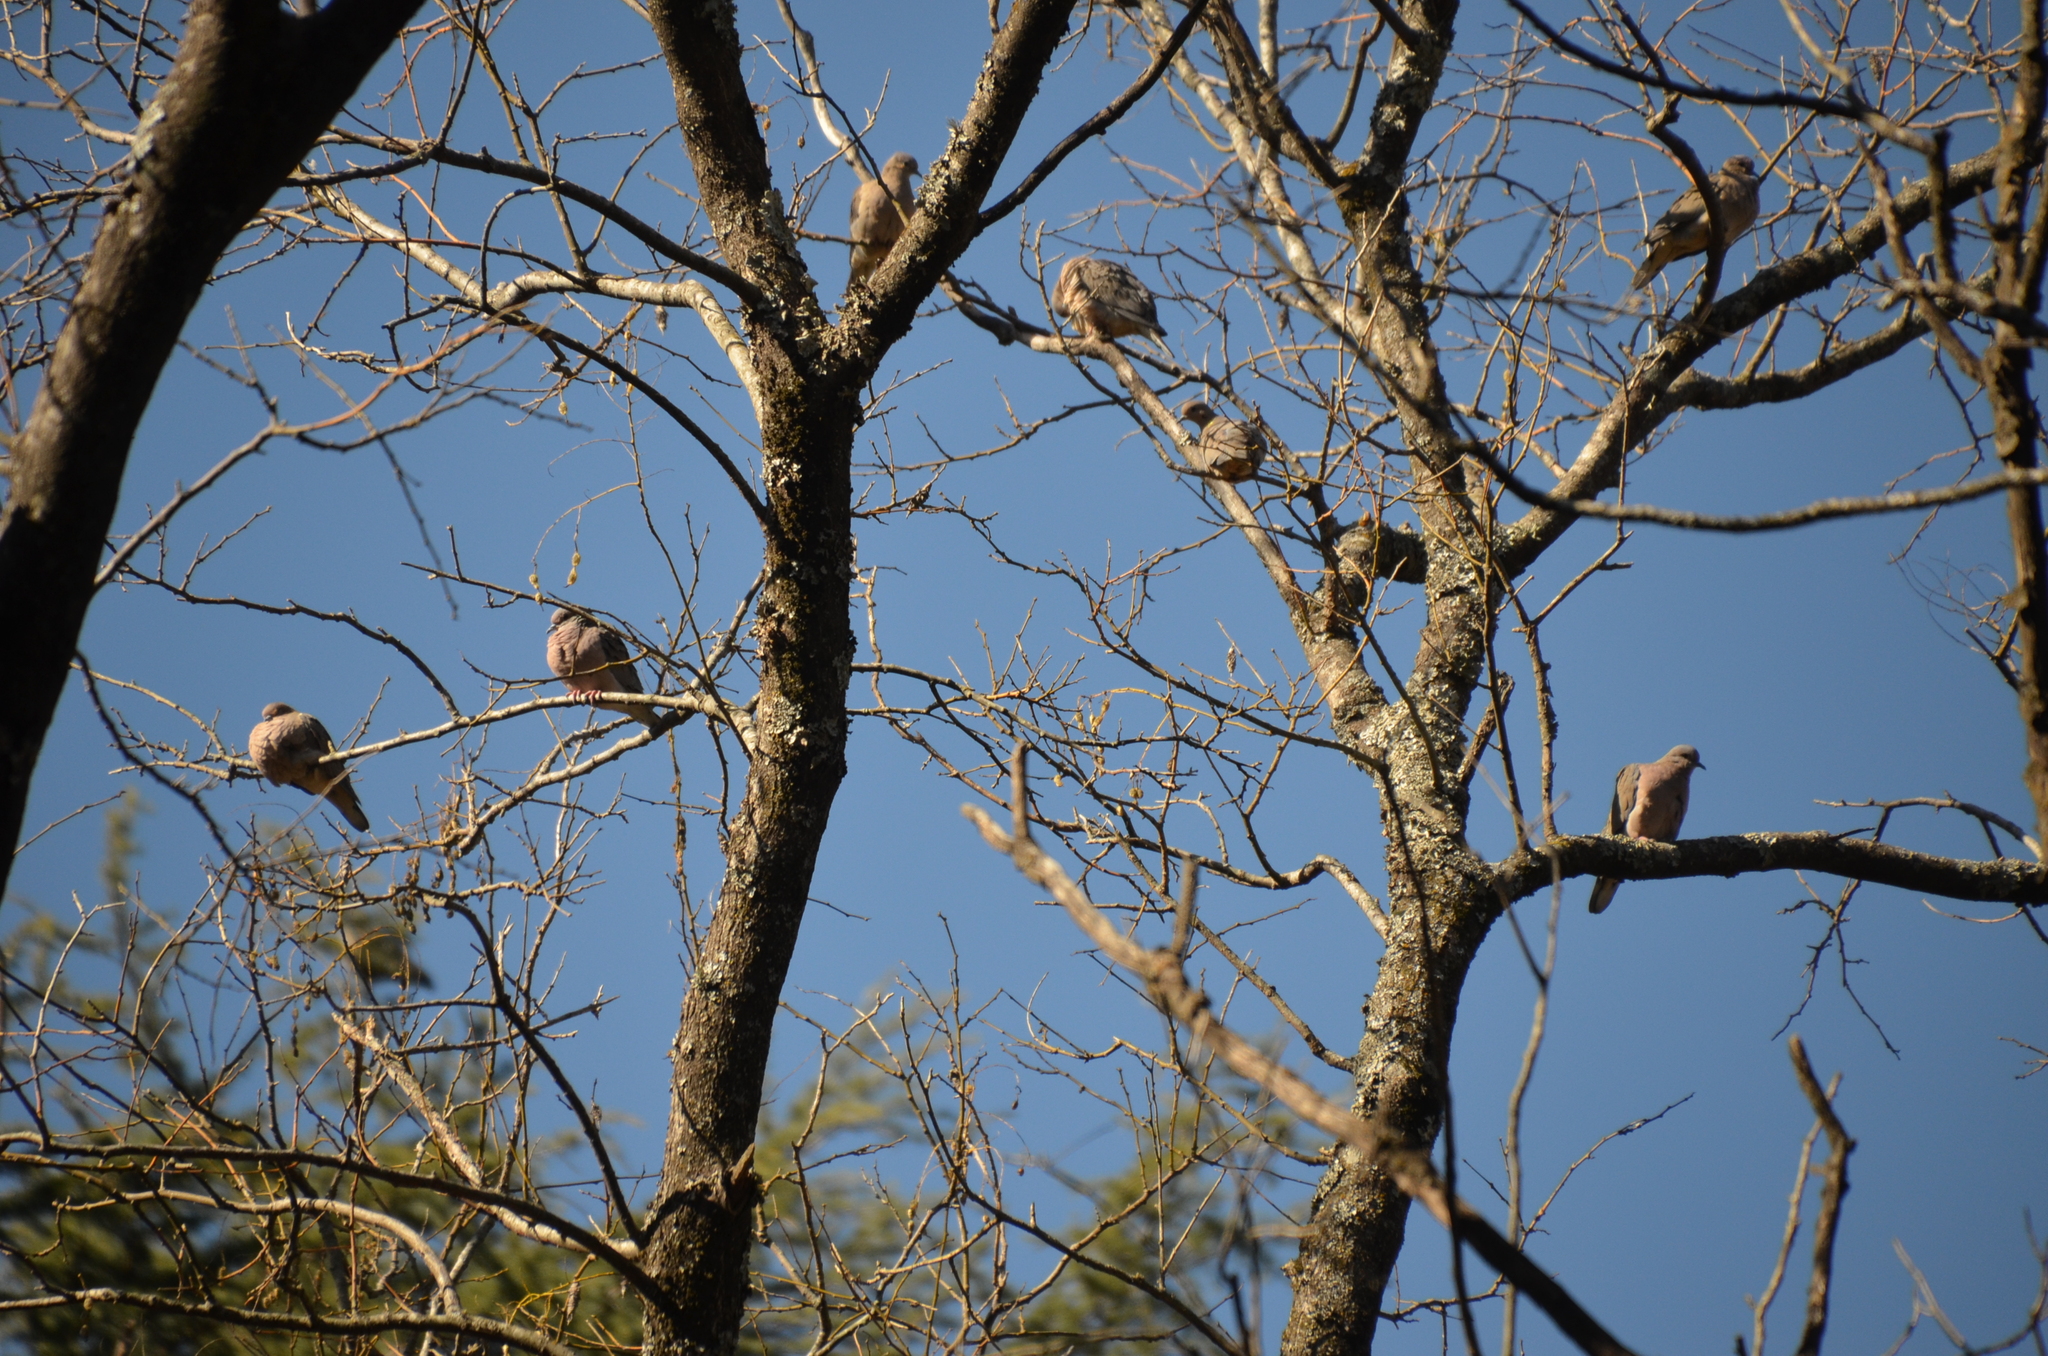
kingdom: Animalia
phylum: Chordata
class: Aves
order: Columbiformes
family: Columbidae
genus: Zenaida
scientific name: Zenaida auriculata
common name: Eared dove
